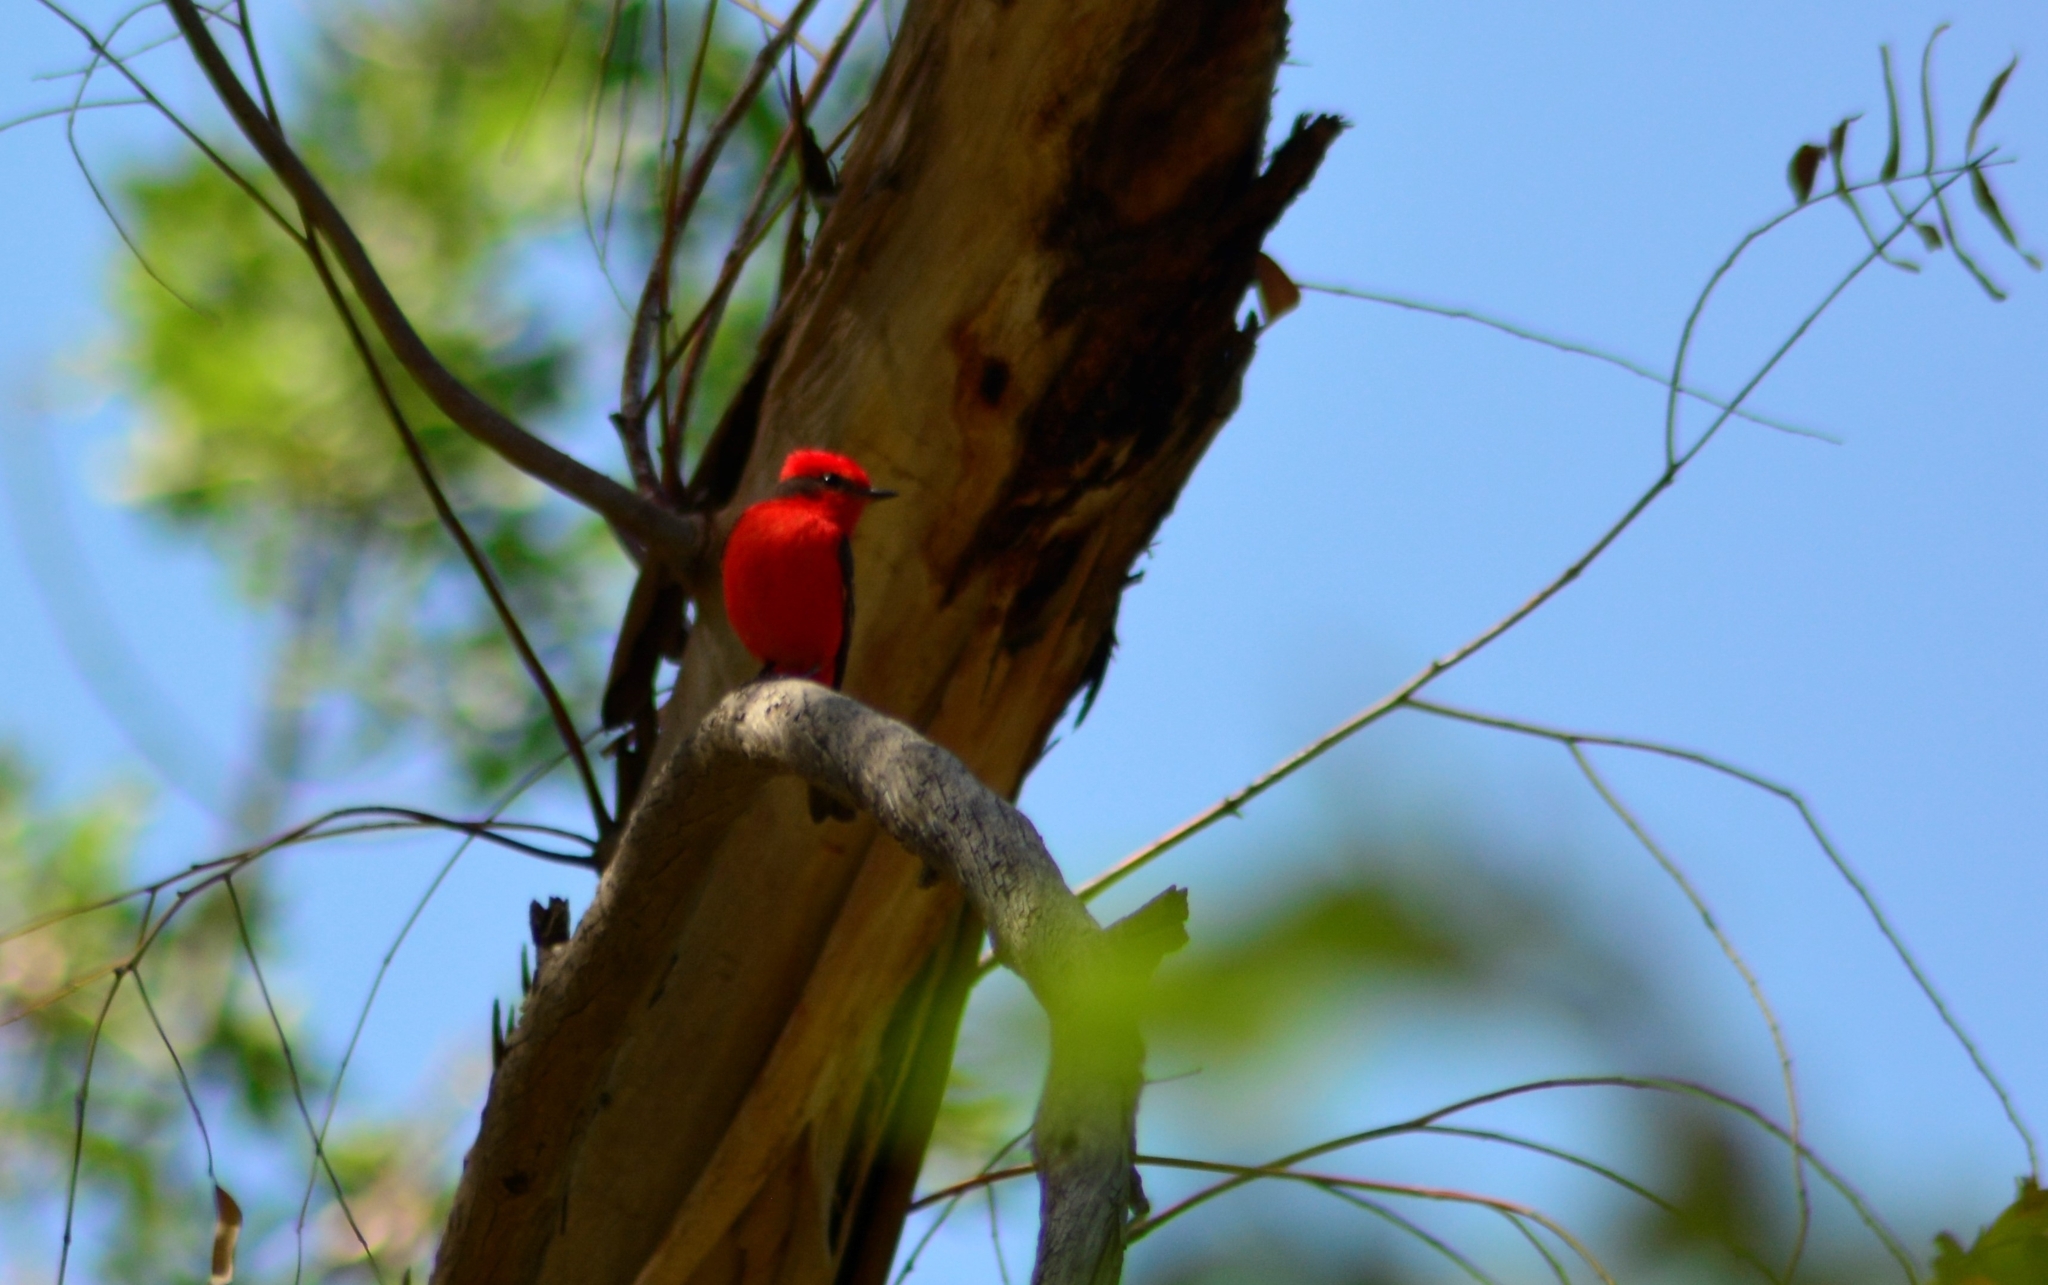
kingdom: Animalia
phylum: Chordata
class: Aves
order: Passeriformes
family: Tyrannidae
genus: Pyrocephalus
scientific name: Pyrocephalus rubinus
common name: Vermilion flycatcher
